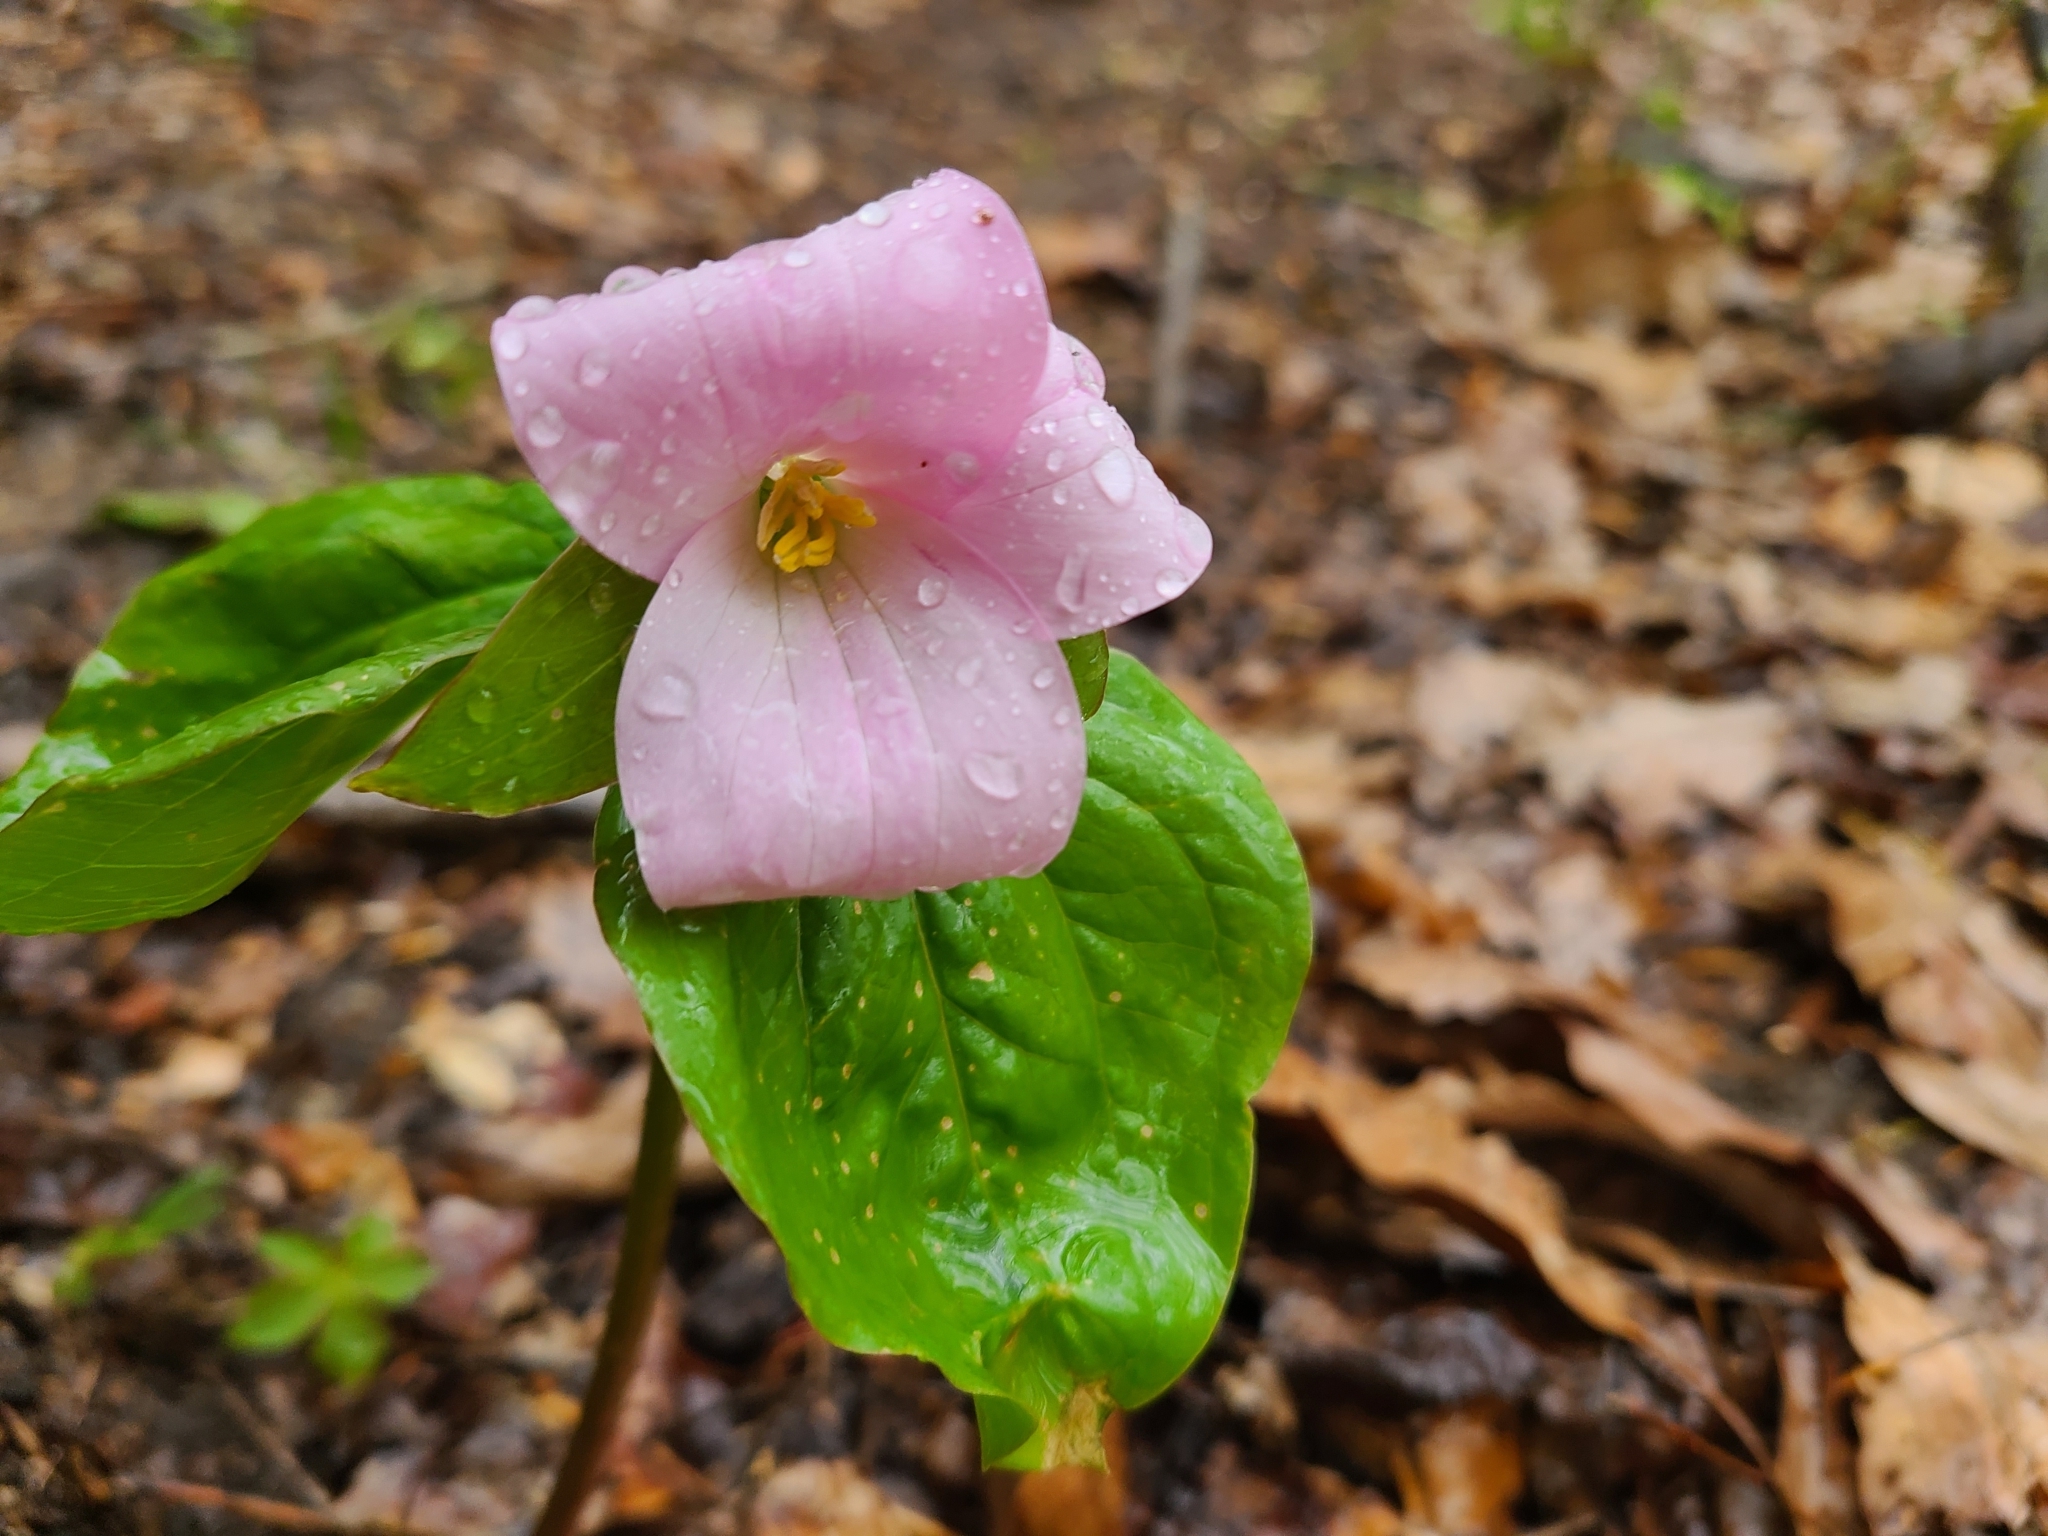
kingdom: Plantae
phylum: Tracheophyta
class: Liliopsida
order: Liliales
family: Melanthiaceae
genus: Trillium
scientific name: Trillium grandiflorum
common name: Great white trillium
